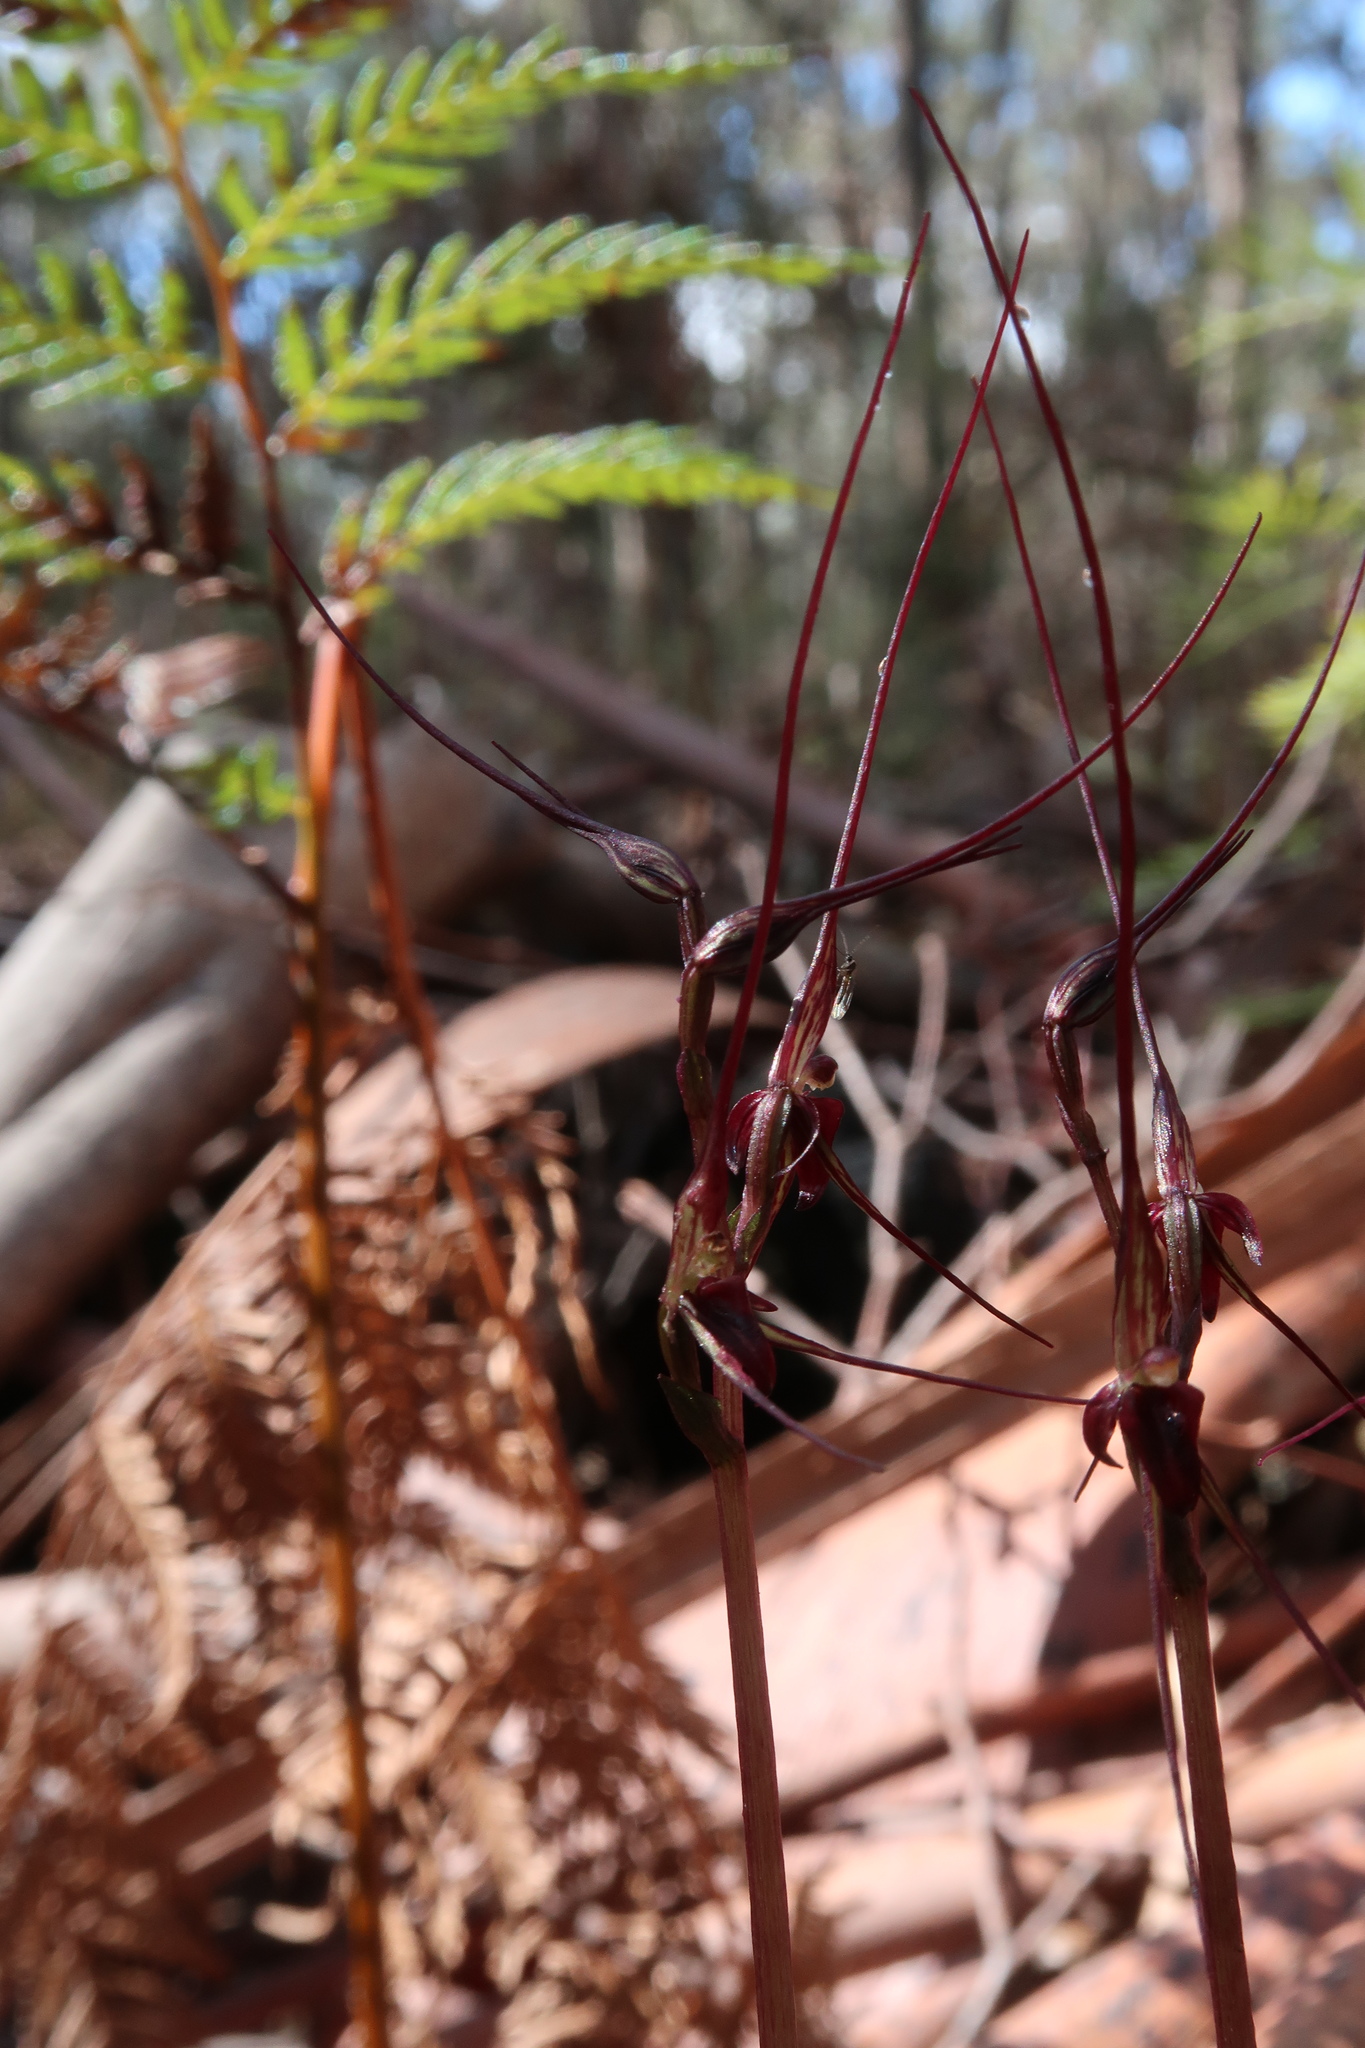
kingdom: Plantae
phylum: Tracheophyta
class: Liliopsida
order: Asparagales
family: Orchidaceae
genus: Acianthus
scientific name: Acianthus caudatus
